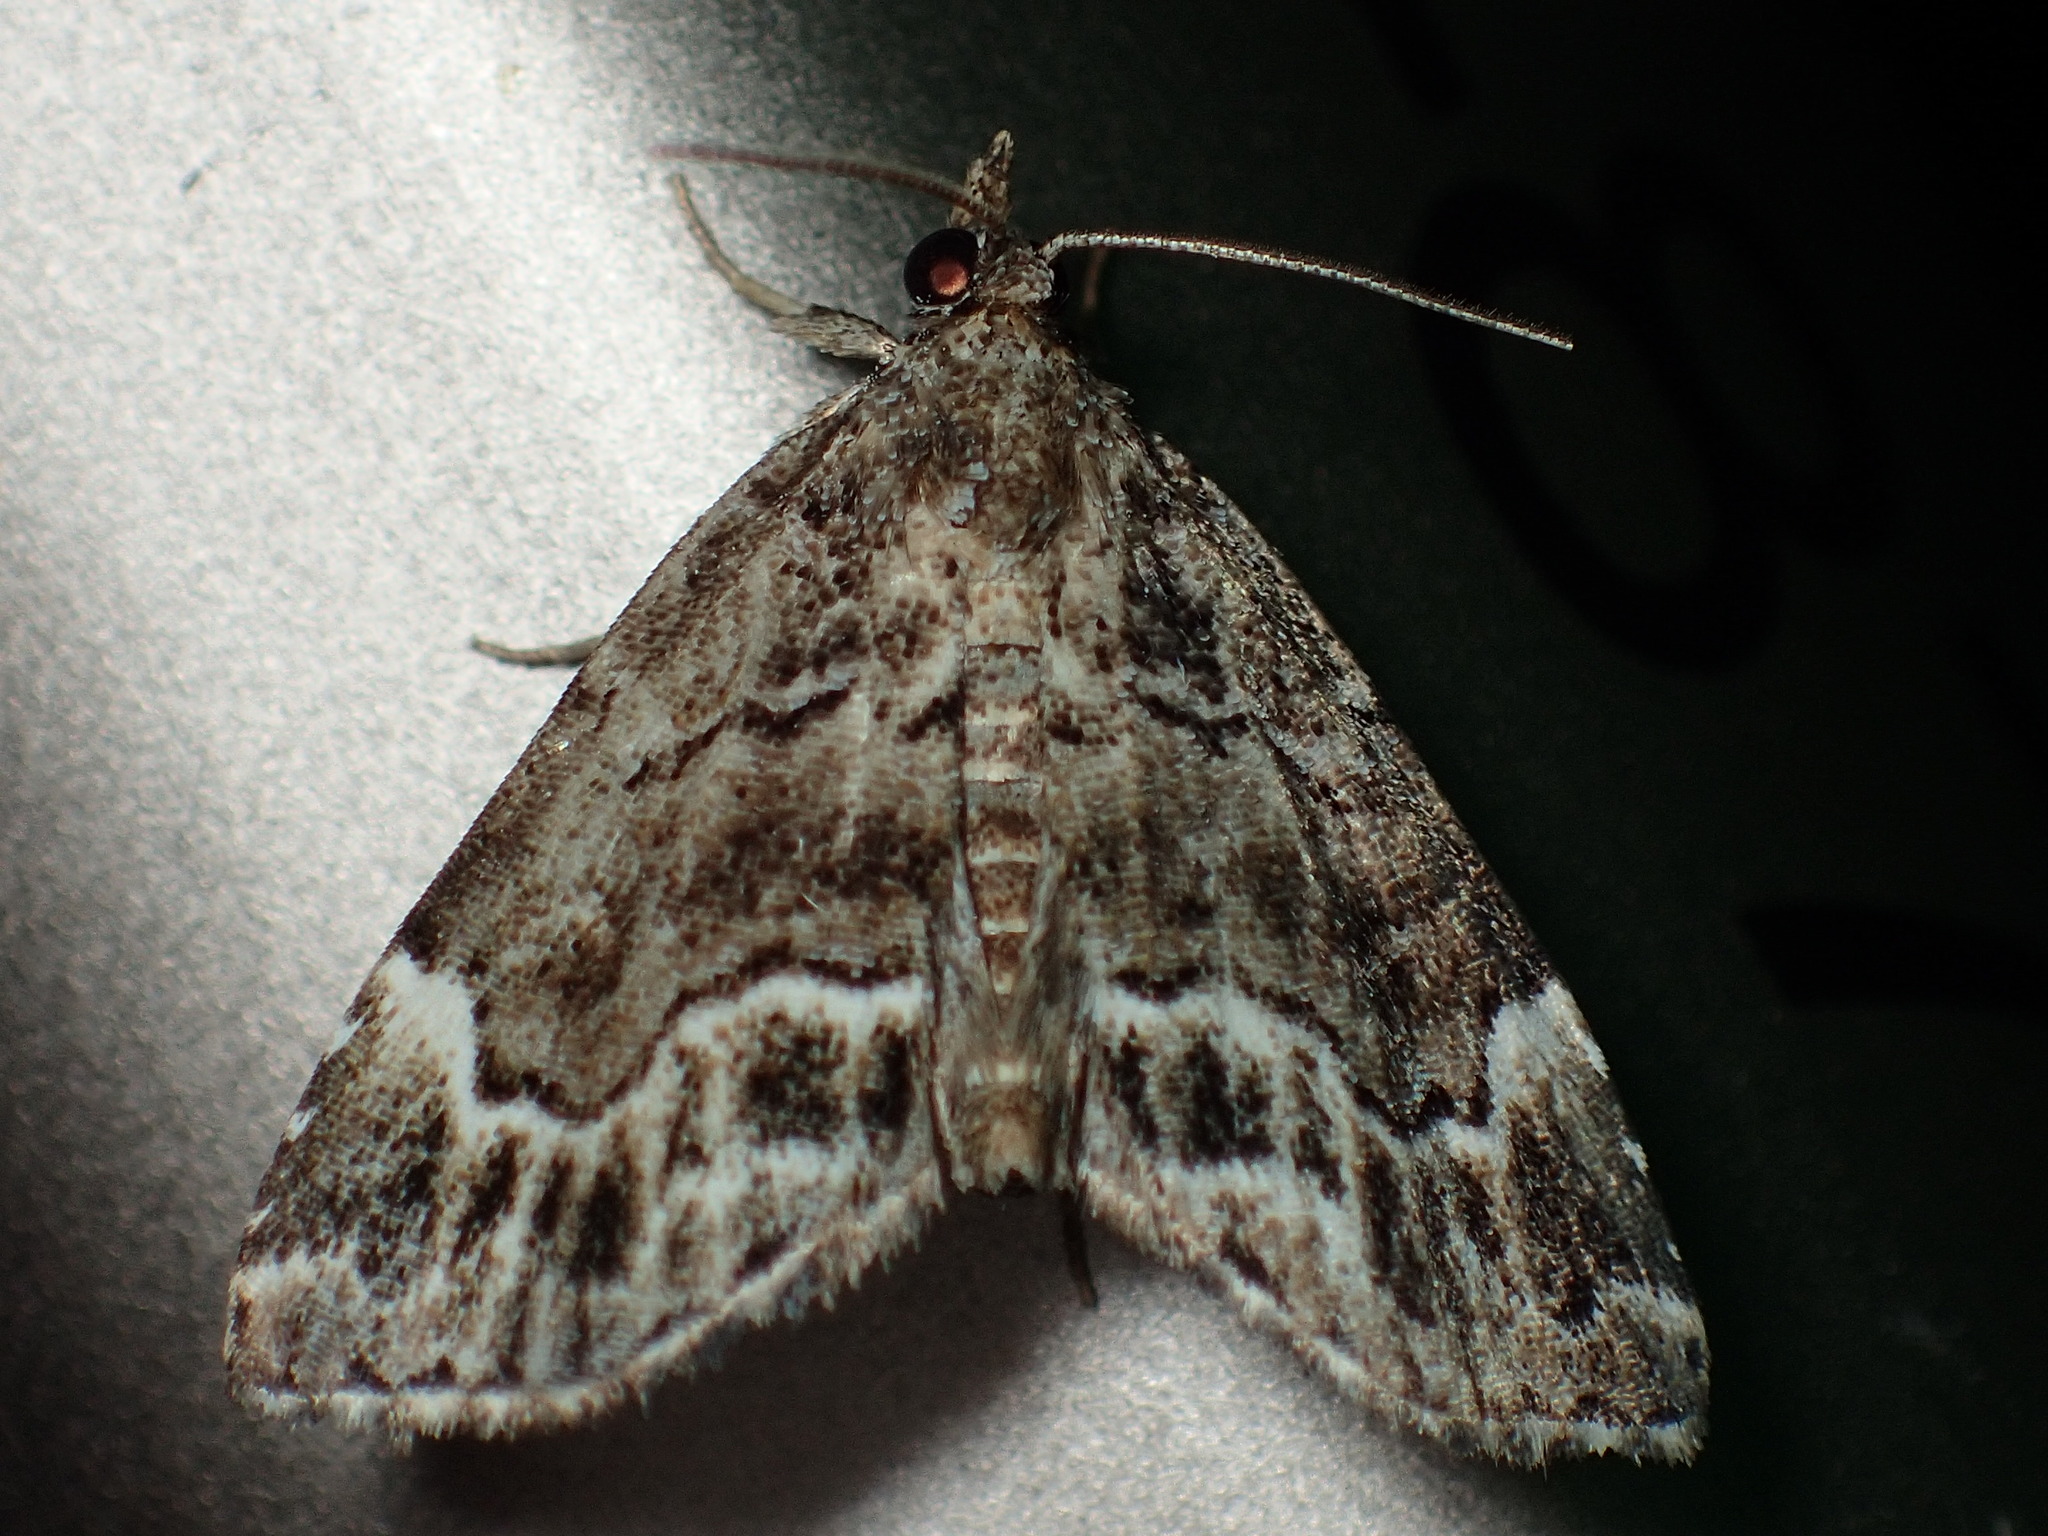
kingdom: Animalia
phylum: Arthropoda
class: Insecta
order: Lepidoptera
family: Erebidae
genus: Cutina
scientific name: Cutina arcuata
